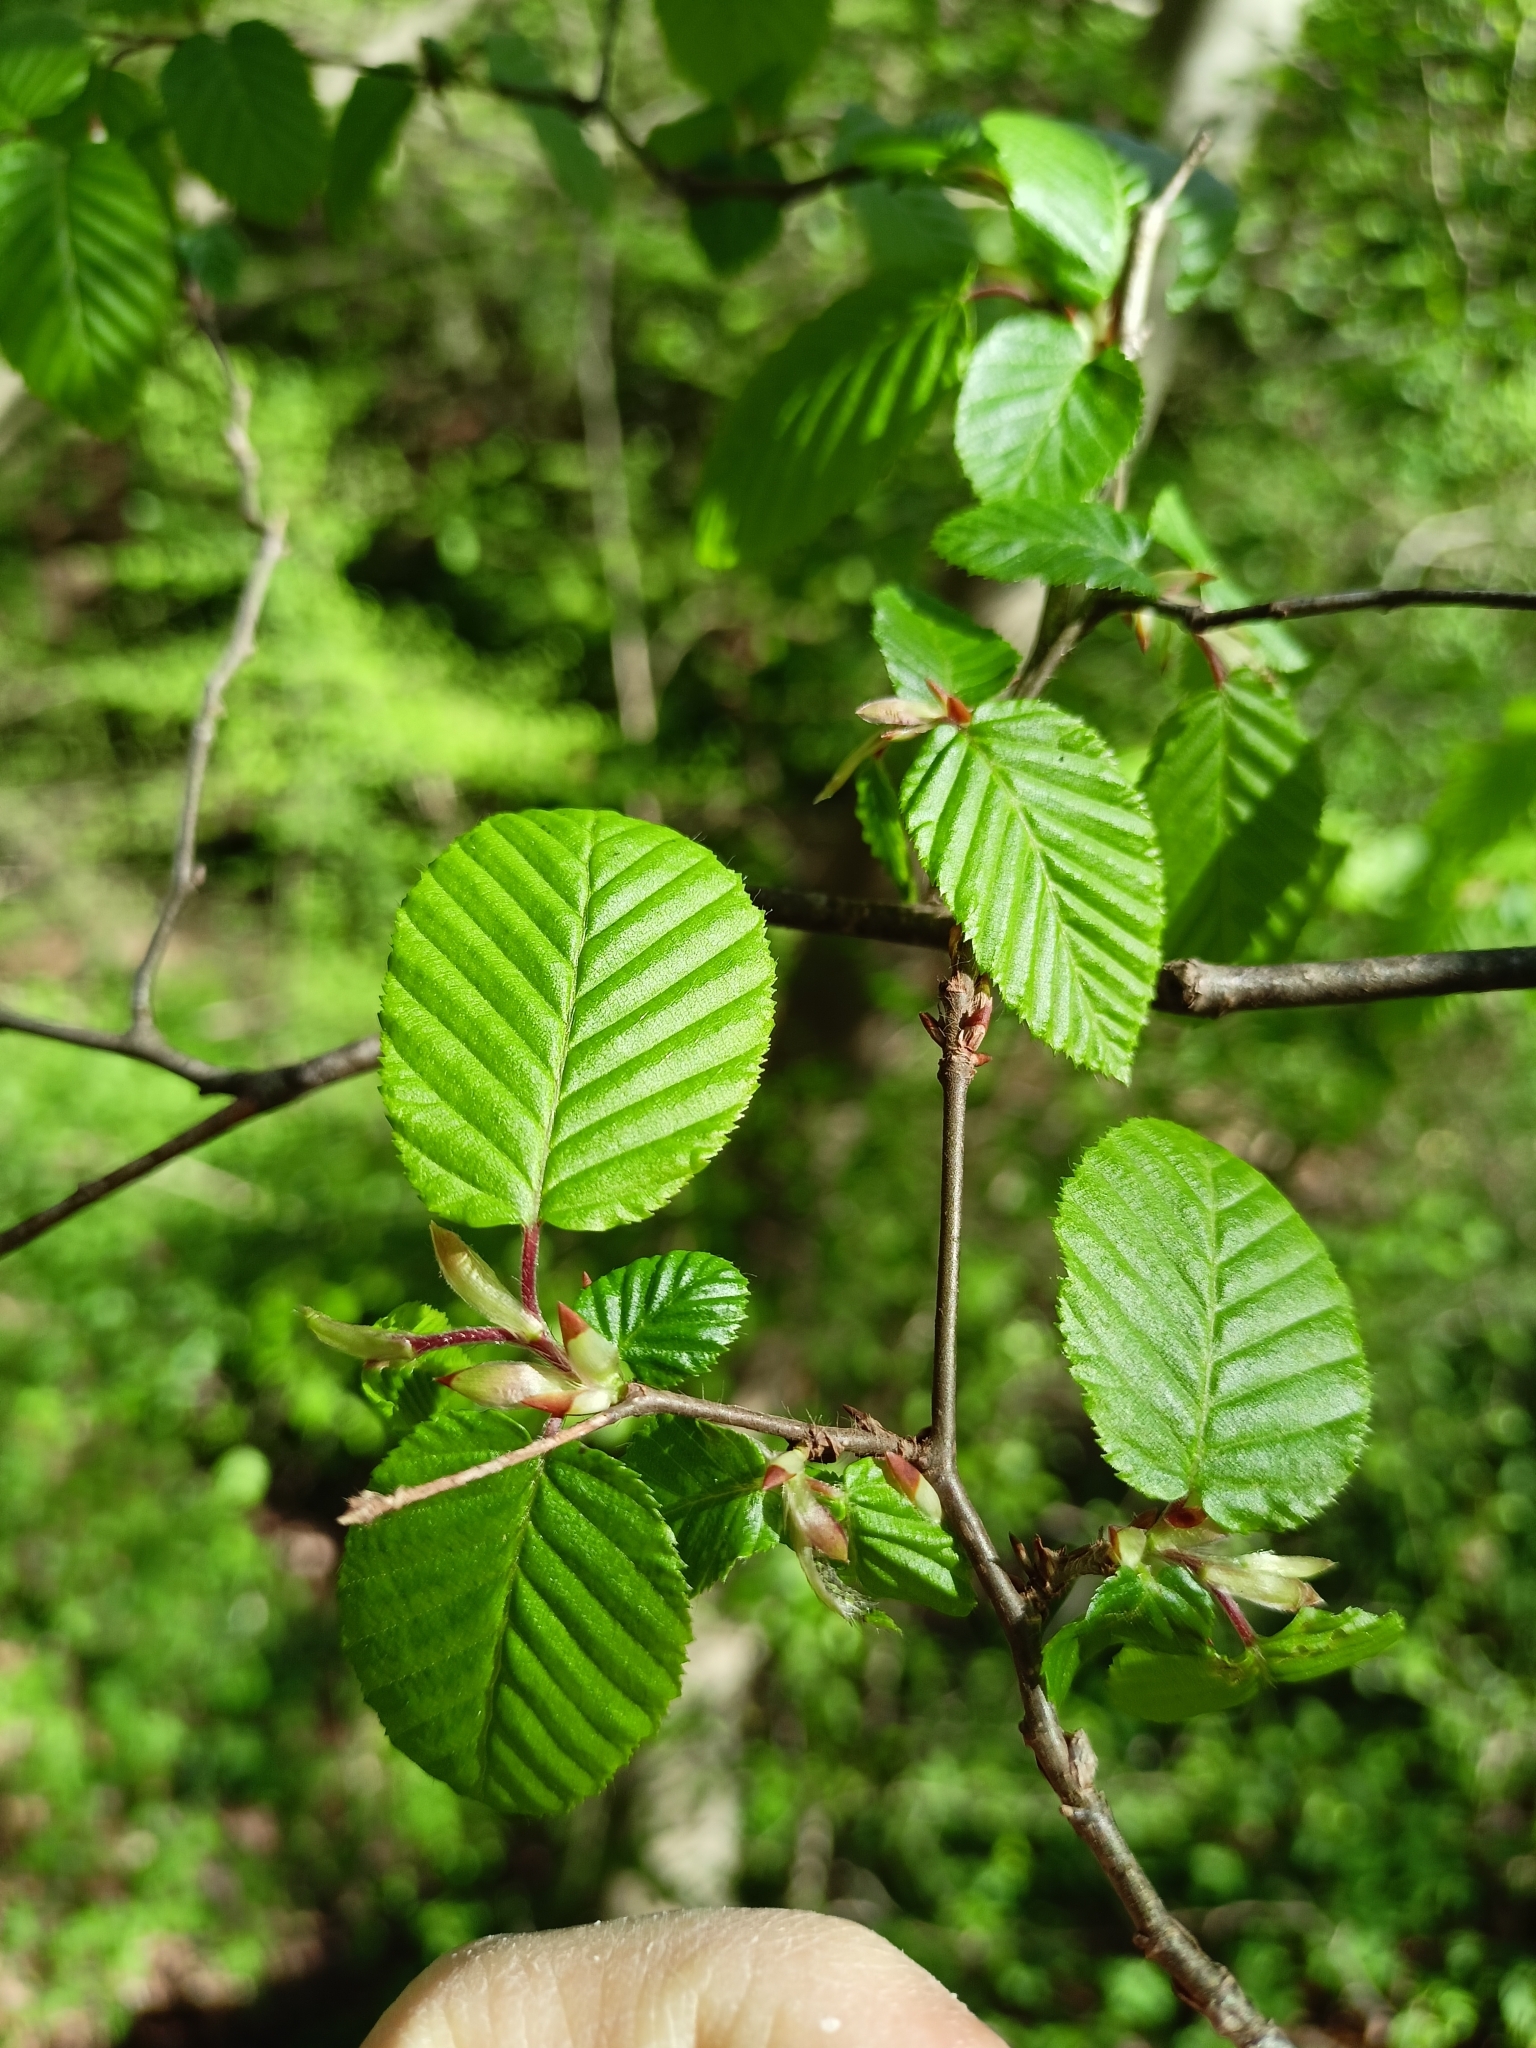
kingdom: Plantae
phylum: Tracheophyta
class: Magnoliopsida
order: Fagales
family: Betulaceae
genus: Carpinus
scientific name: Carpinus betulus
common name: Hornbeam
